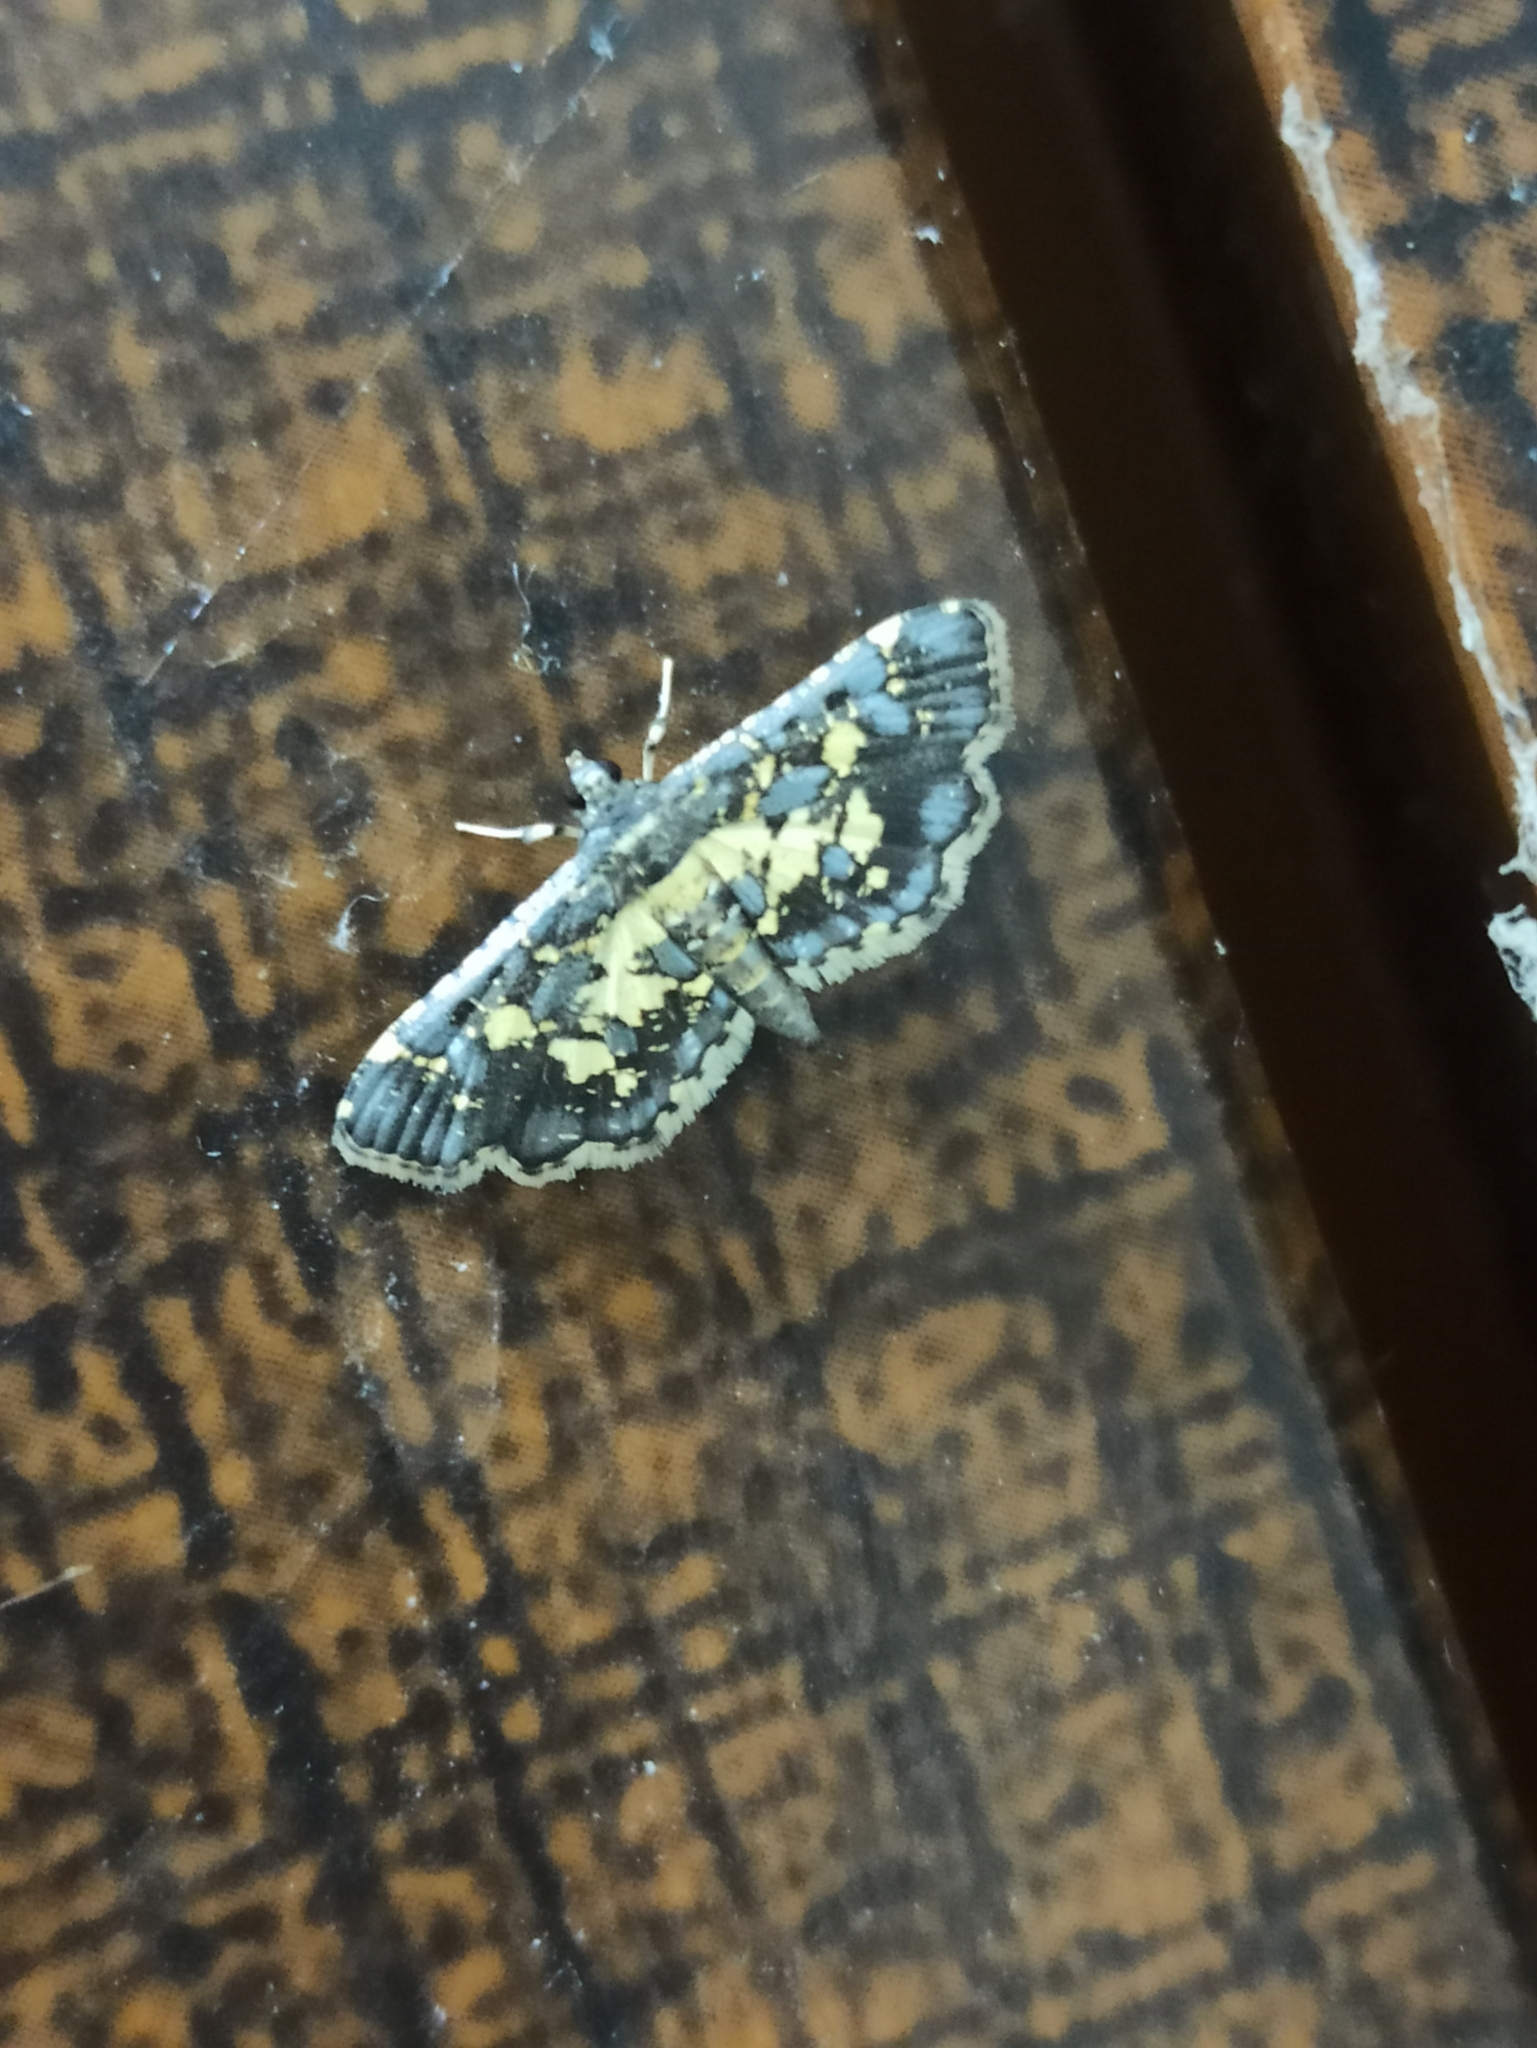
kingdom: Animalia
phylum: Arthropoda
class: Insecta
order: Lepidoptera
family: Crambidae
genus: Eurrhyparodes
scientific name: Eurrhyparodes bracteolalis
